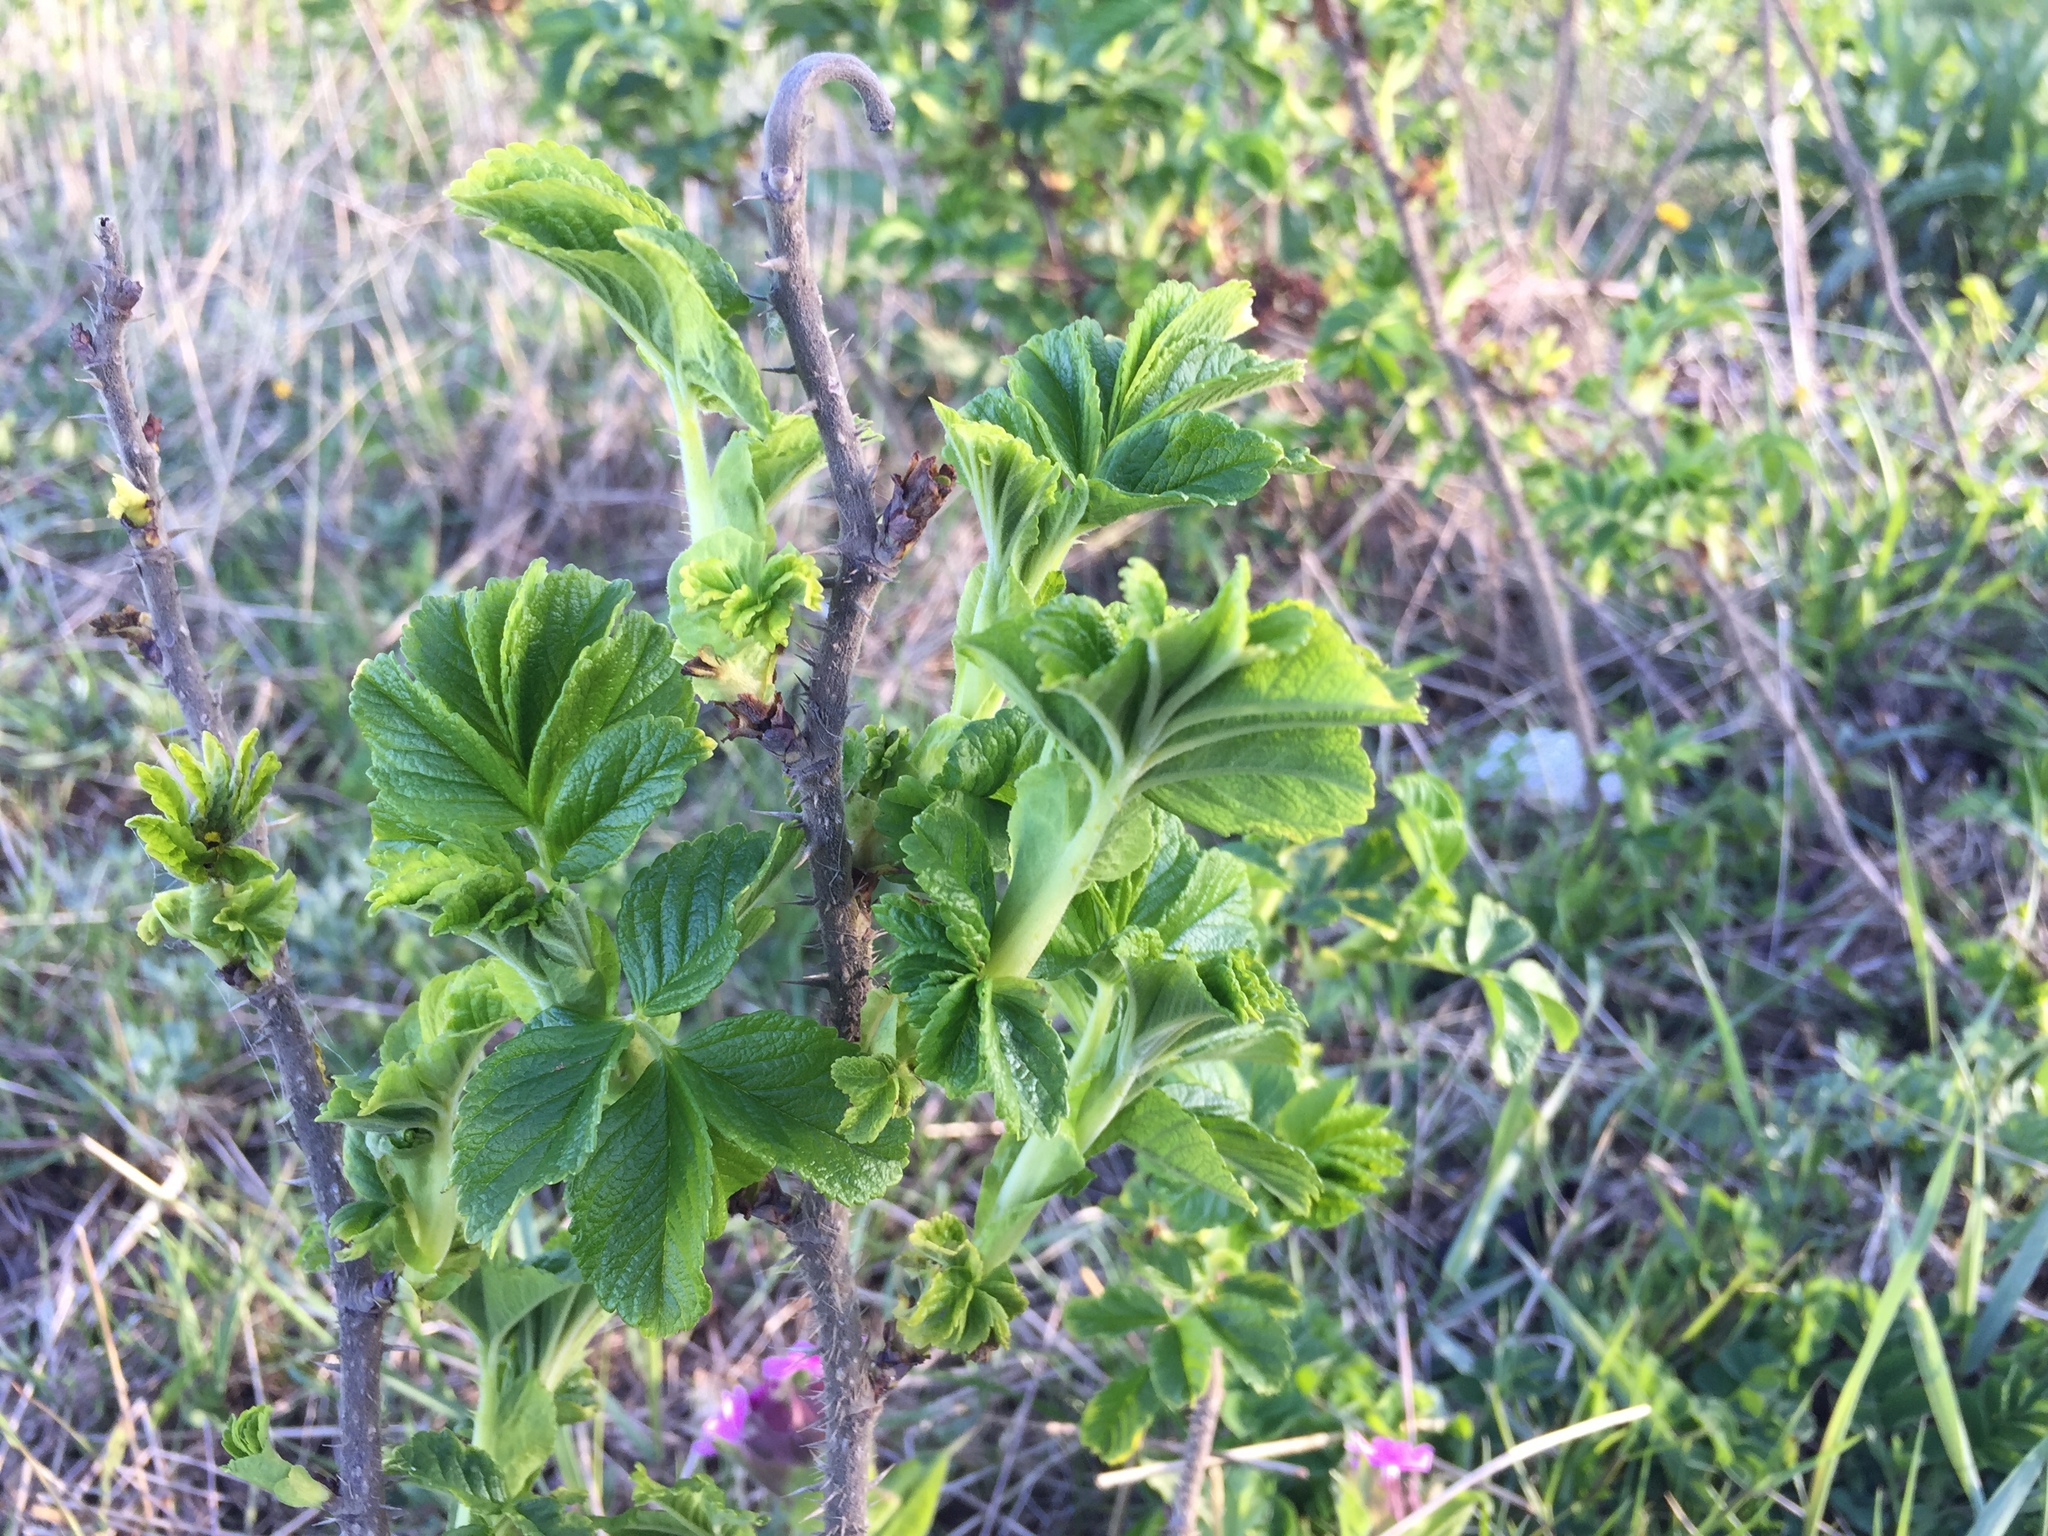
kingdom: Plantae
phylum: Tracheophyta
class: Magnoliopsida
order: Rosales
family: Rosaceae
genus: Rosa
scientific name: Rosa rugosa
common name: Japanese rose
